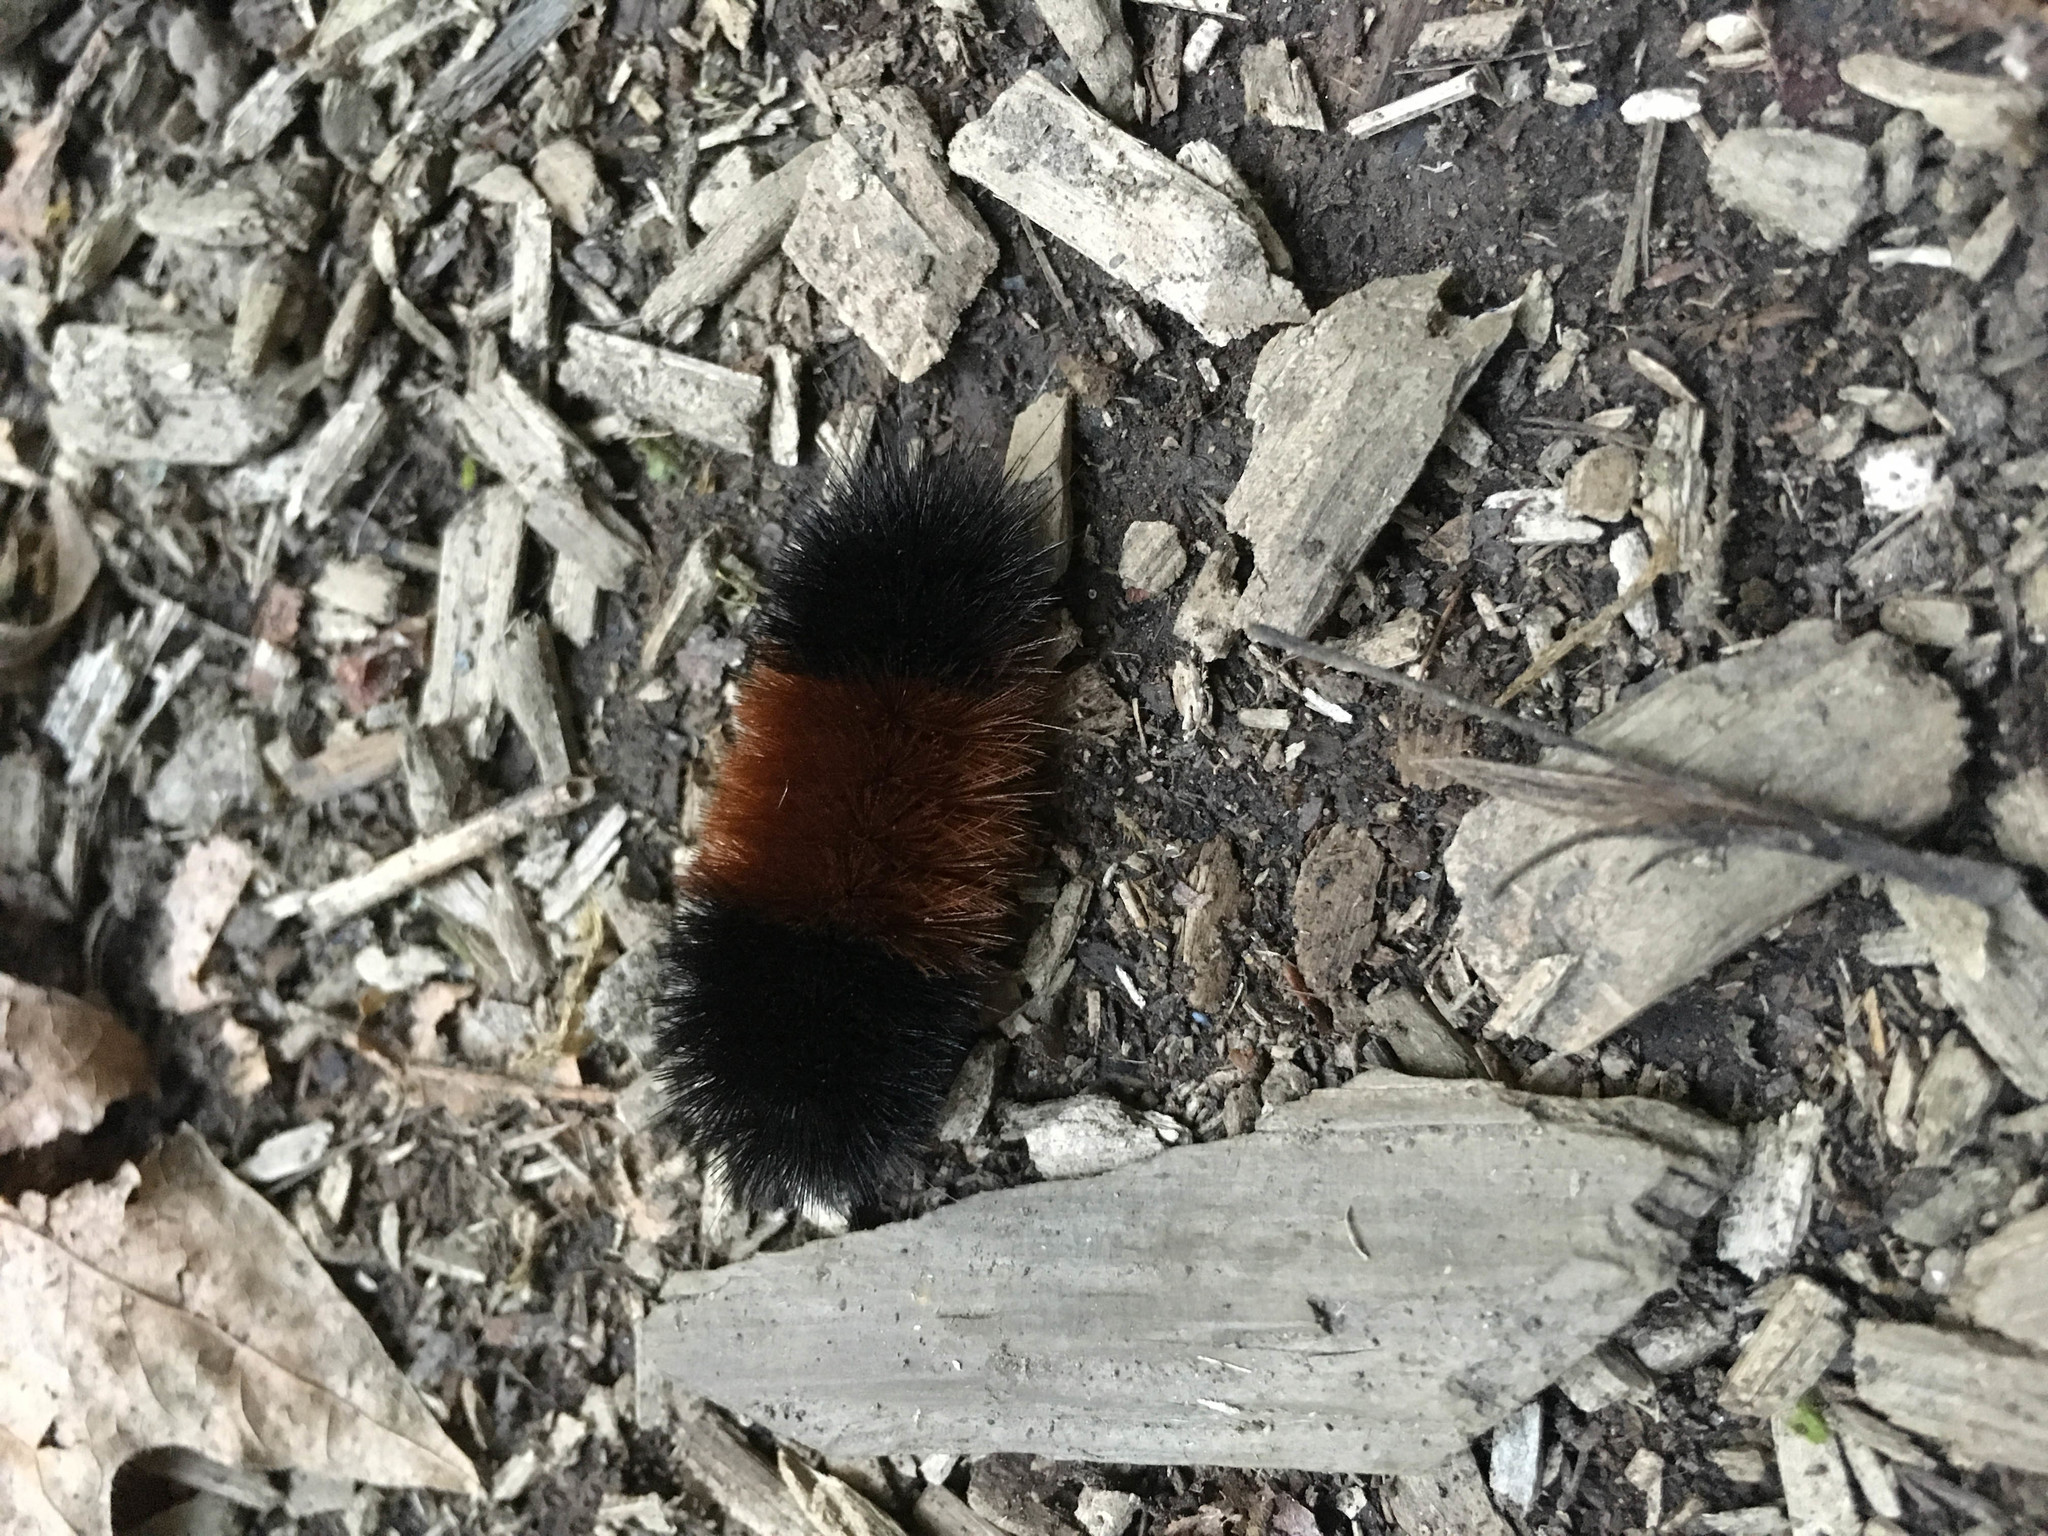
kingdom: Animalia
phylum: Arthropoda
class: Insecta
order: Lepidoptera
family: Erebidae
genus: Pyrrharctia
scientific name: Pyrrharctia isabella
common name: Isabella tiger moth
